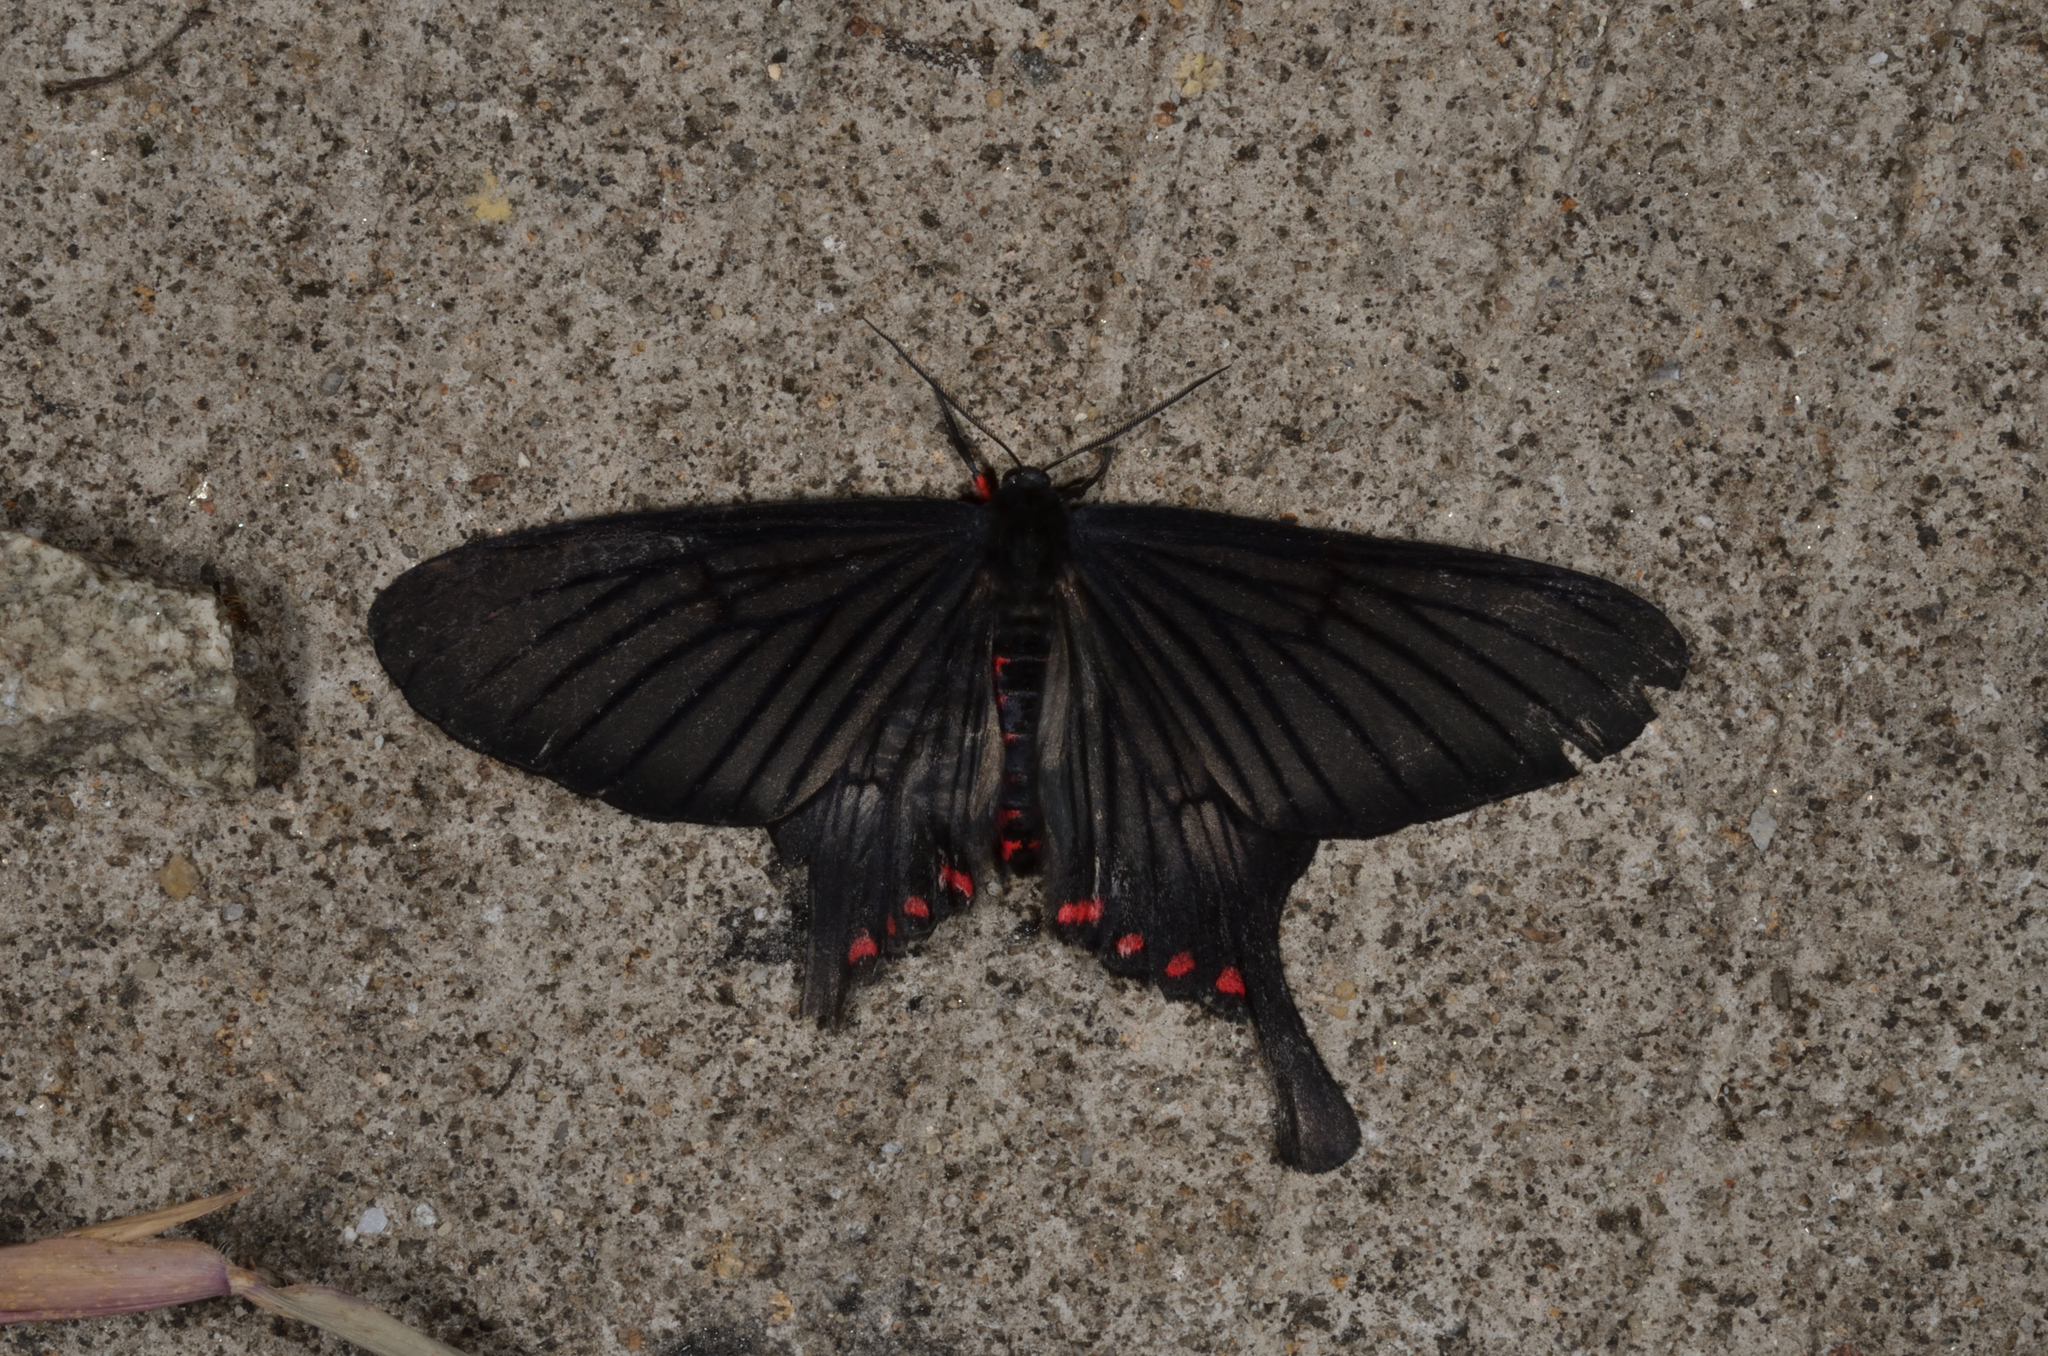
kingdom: Animalia
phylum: Arthropoda
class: Insecta
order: Lepidoptera
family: Epicopeiidae
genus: Epicopeia
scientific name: Epicopeia hainesii
